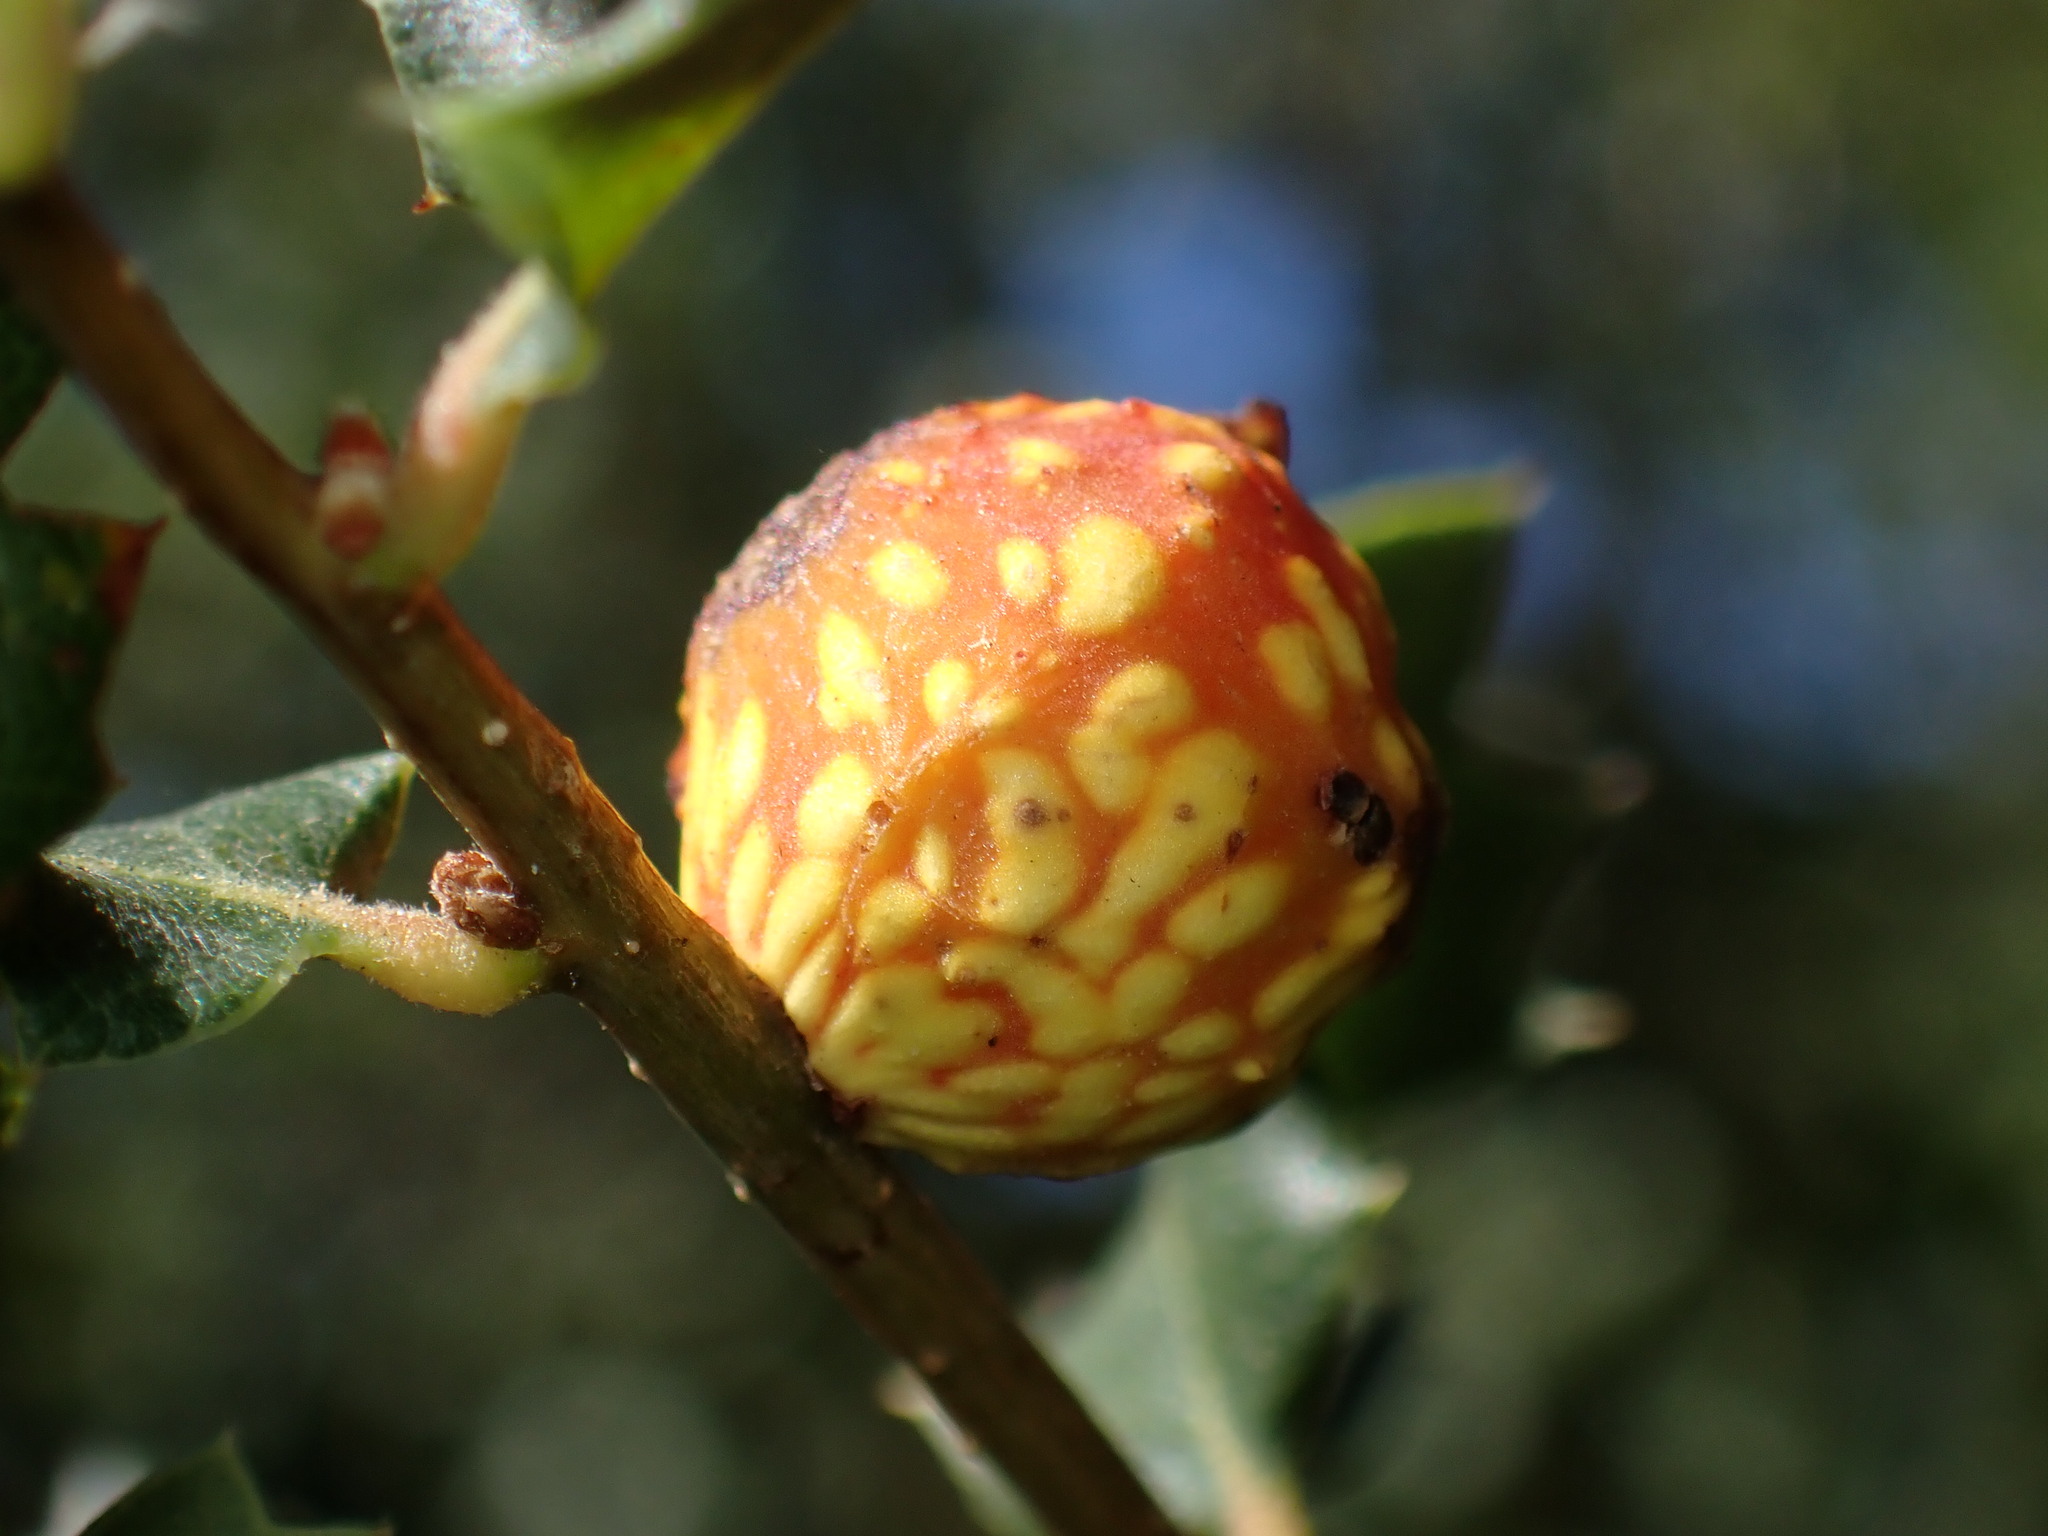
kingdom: Animalia
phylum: Arthropoda
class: Insecta
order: Hymenoptera
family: Cynipidae
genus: Burnettweldia
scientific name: Burnettweldia
